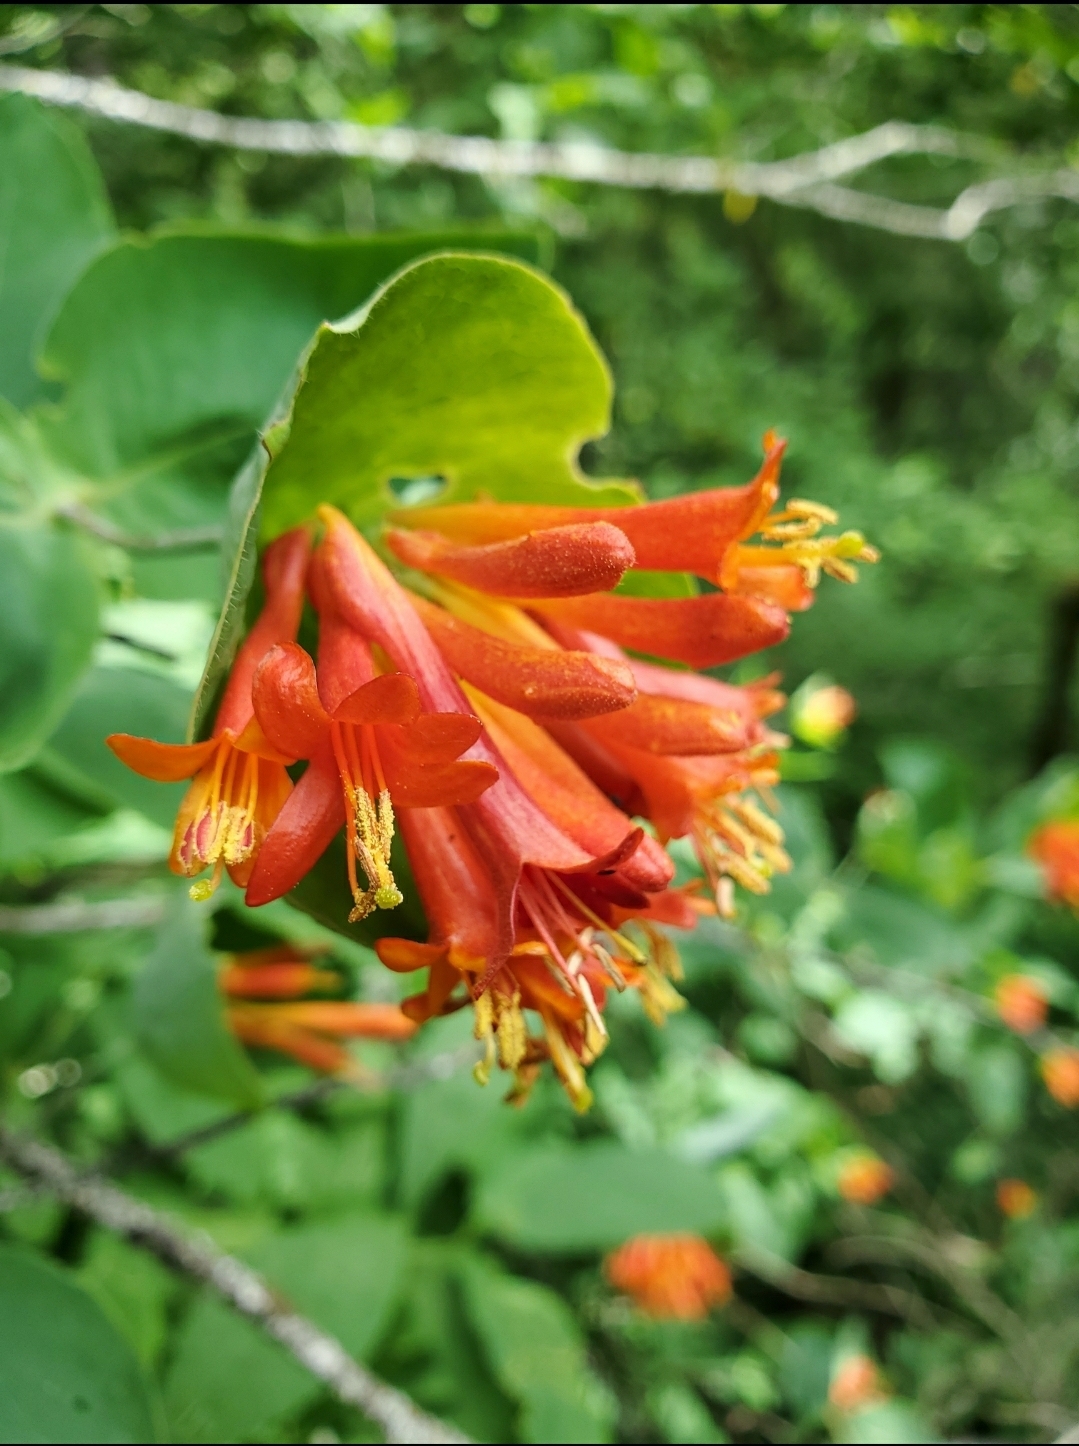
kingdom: Plantae
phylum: Tracheophyta
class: Magnoliopsida
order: Dipsacales
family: Caprifoliaceae
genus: Lonicera
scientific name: Lonicera ciliosa
